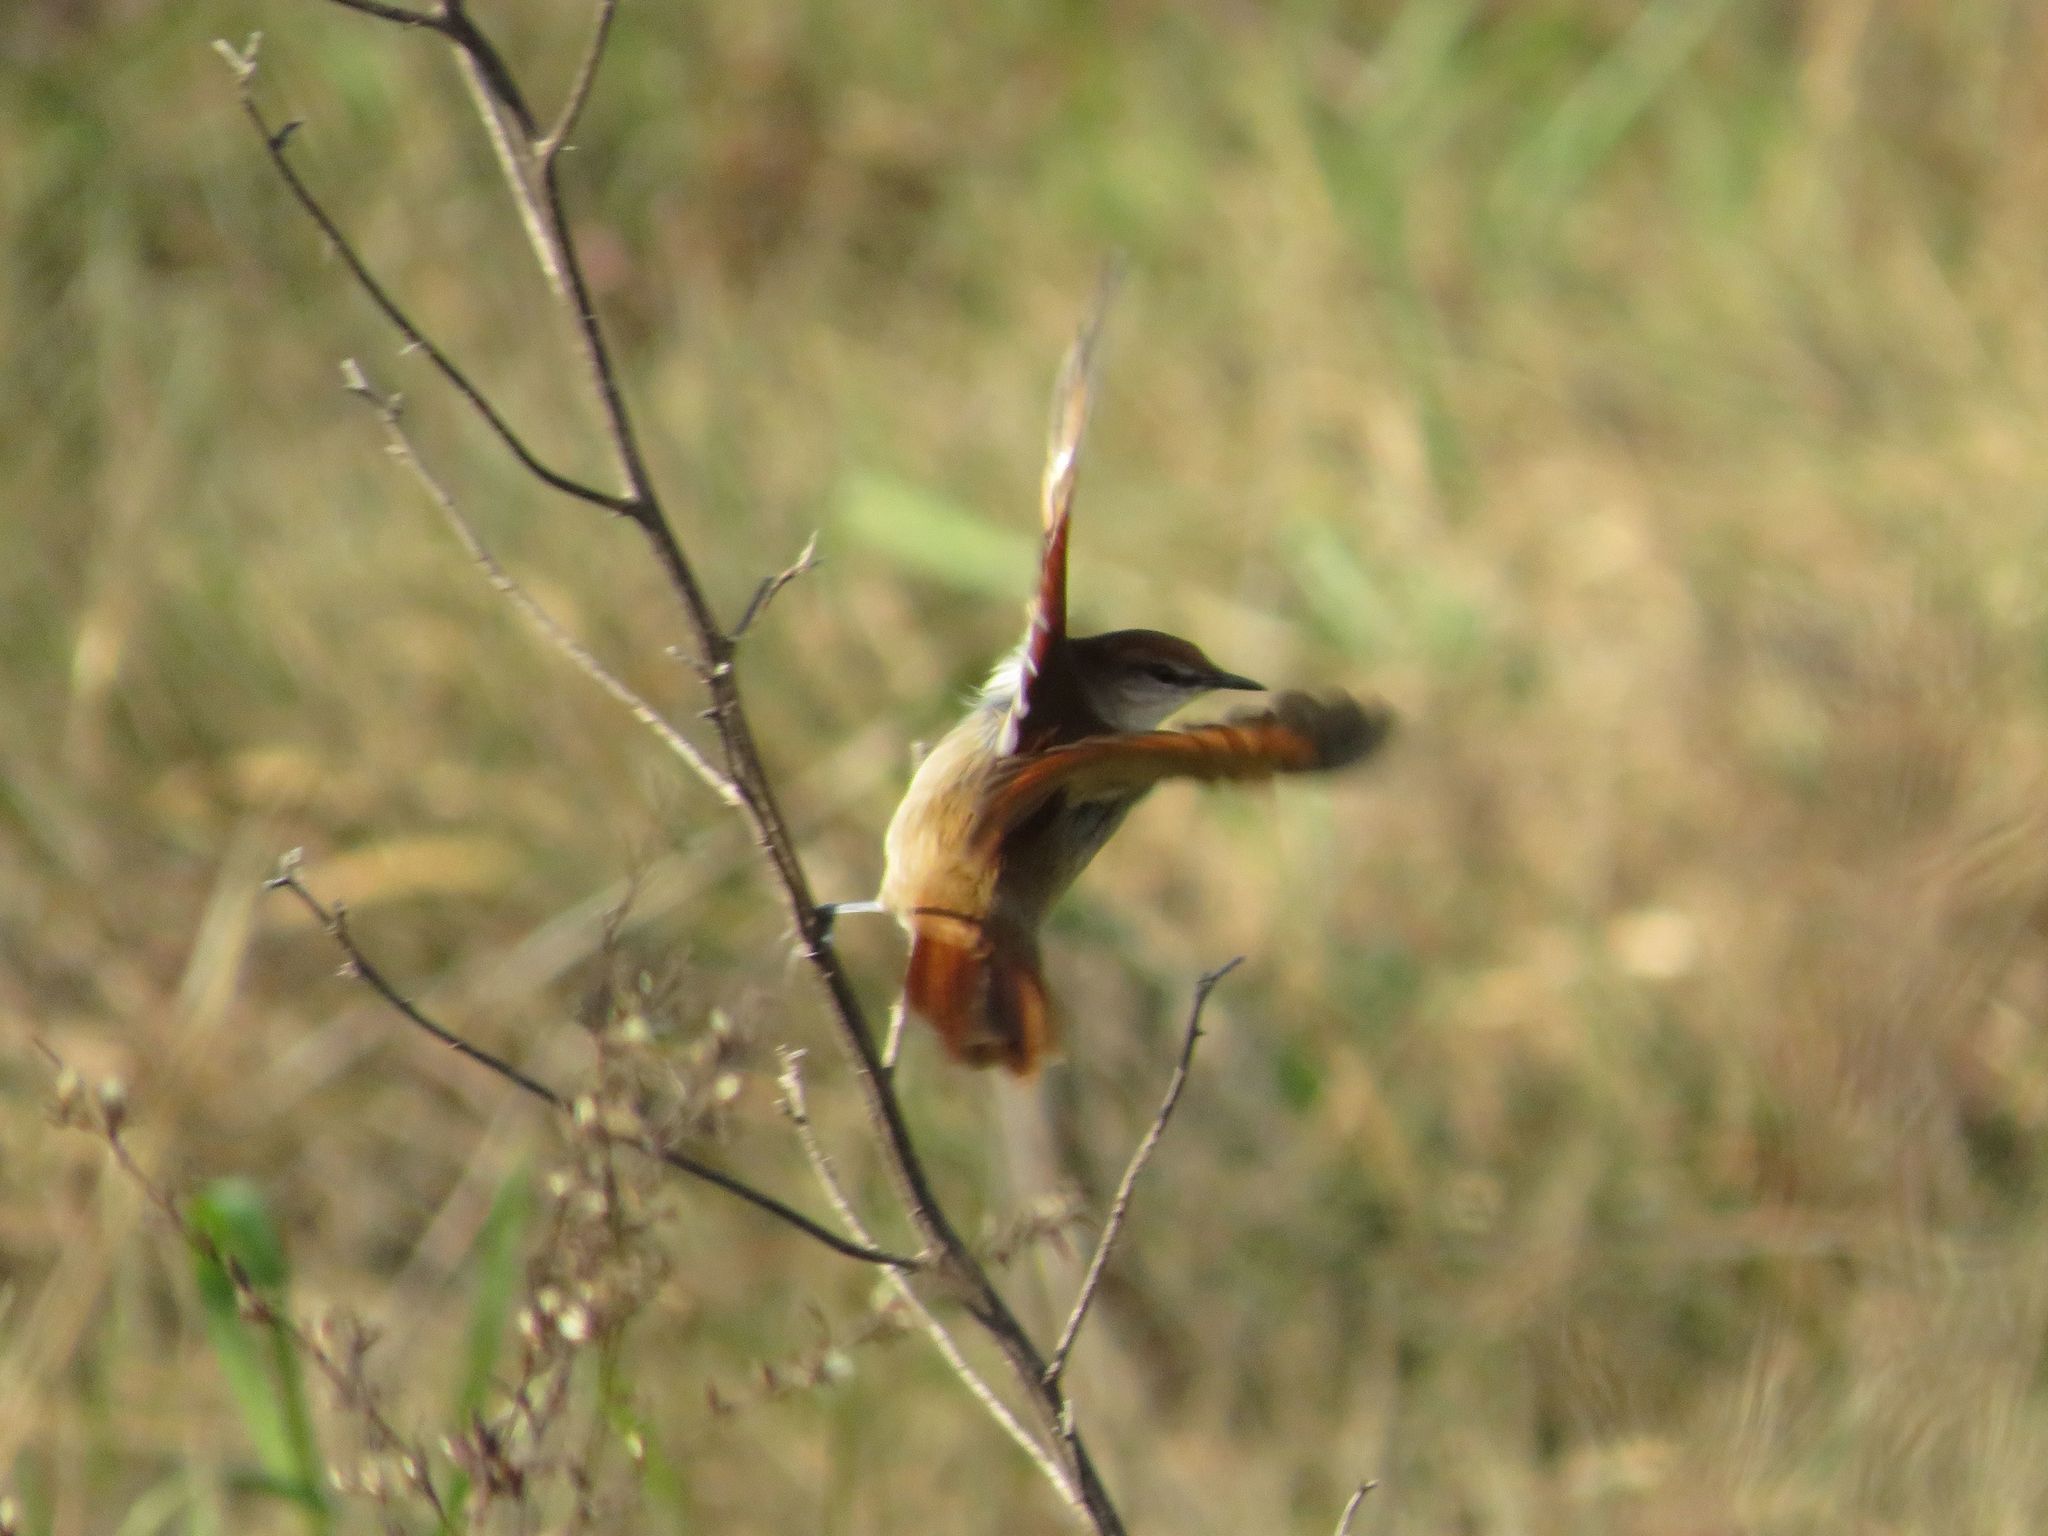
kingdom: Animalia
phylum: Chordata
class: Aves
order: Passeriformes
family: Furnariidae
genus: Certhiaxis
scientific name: Certhiaxis cinnamomeus
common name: Yellow-chinned spinetail
